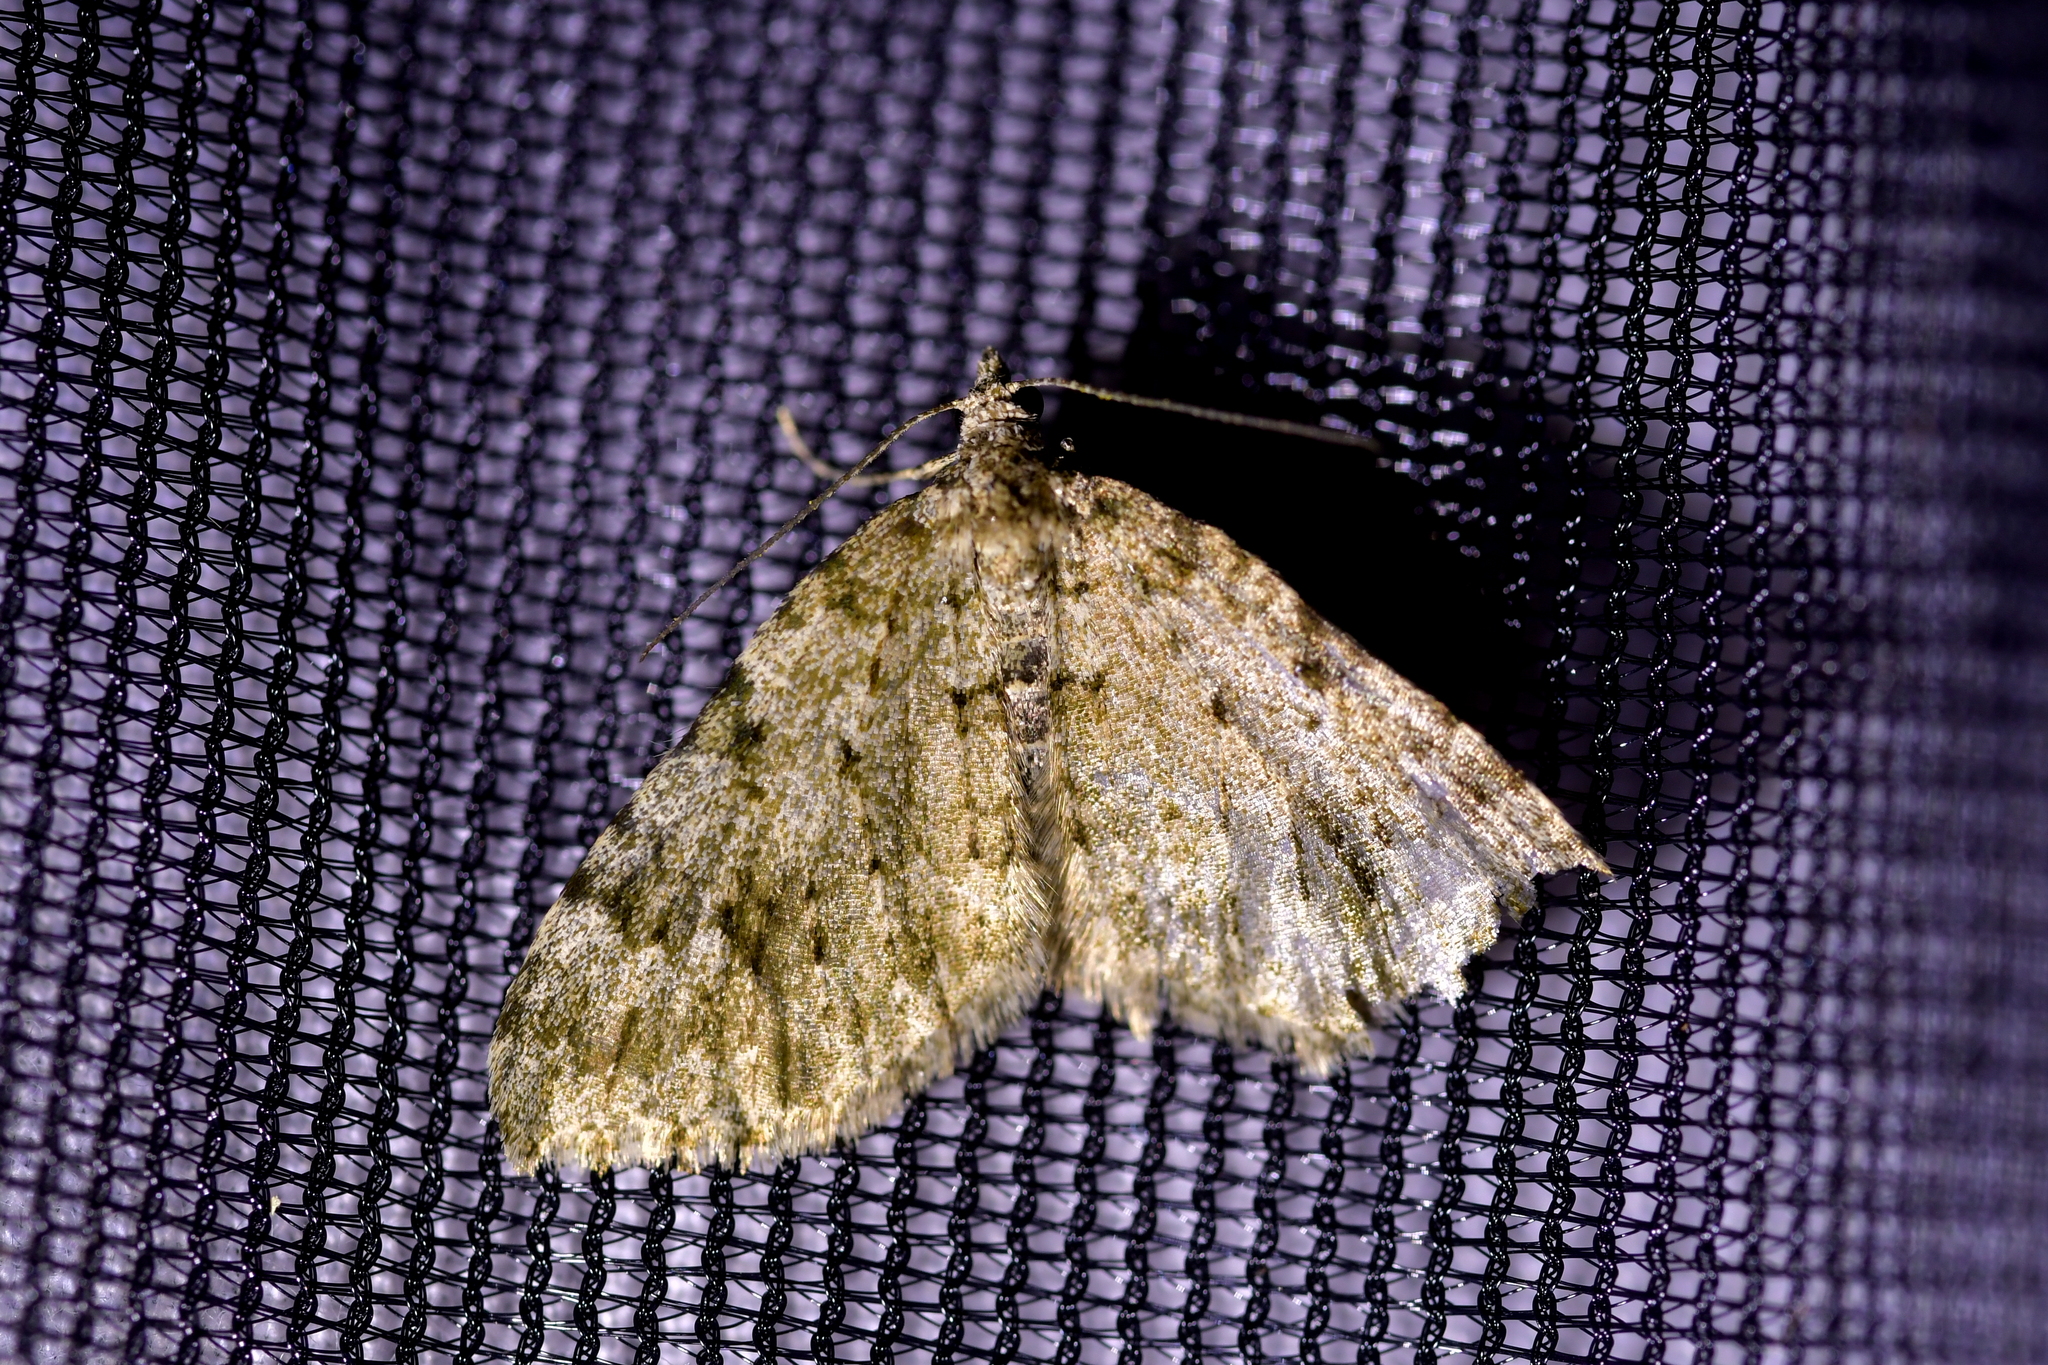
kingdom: Animalia
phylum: Arthropoda
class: Insecta
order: Lepidoptera
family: Geometridae
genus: Helastia
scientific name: Helastia cinerearia
